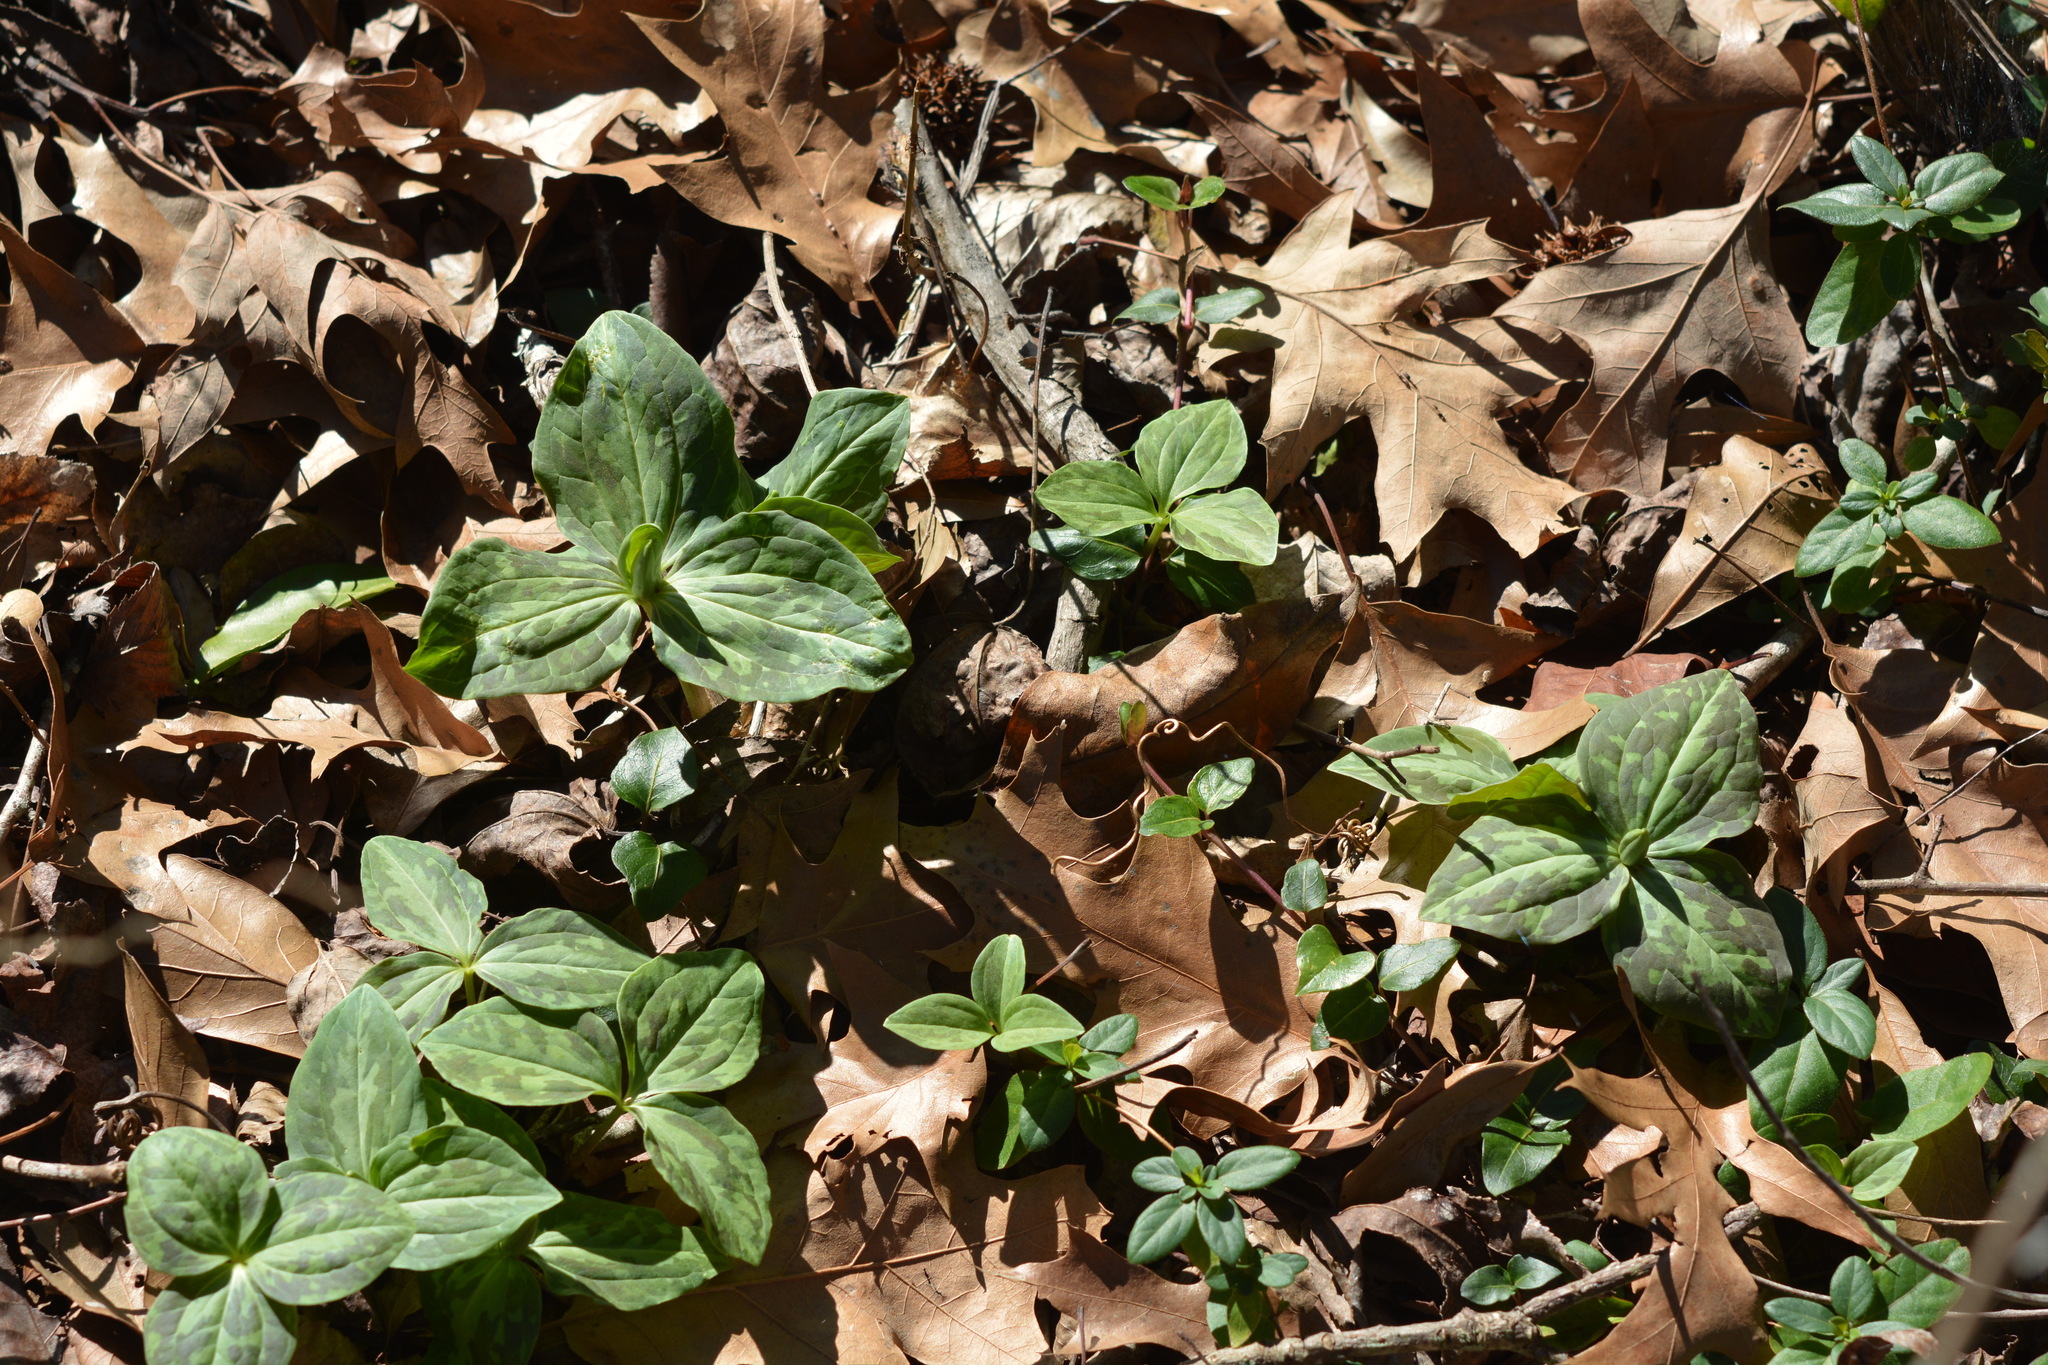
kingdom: Plantae
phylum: Tracheophyta
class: Liliopsida
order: Liliales
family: Melanthiaceae
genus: Trillium
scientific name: Trillium foetidissimum
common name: Mississippi river trillium
